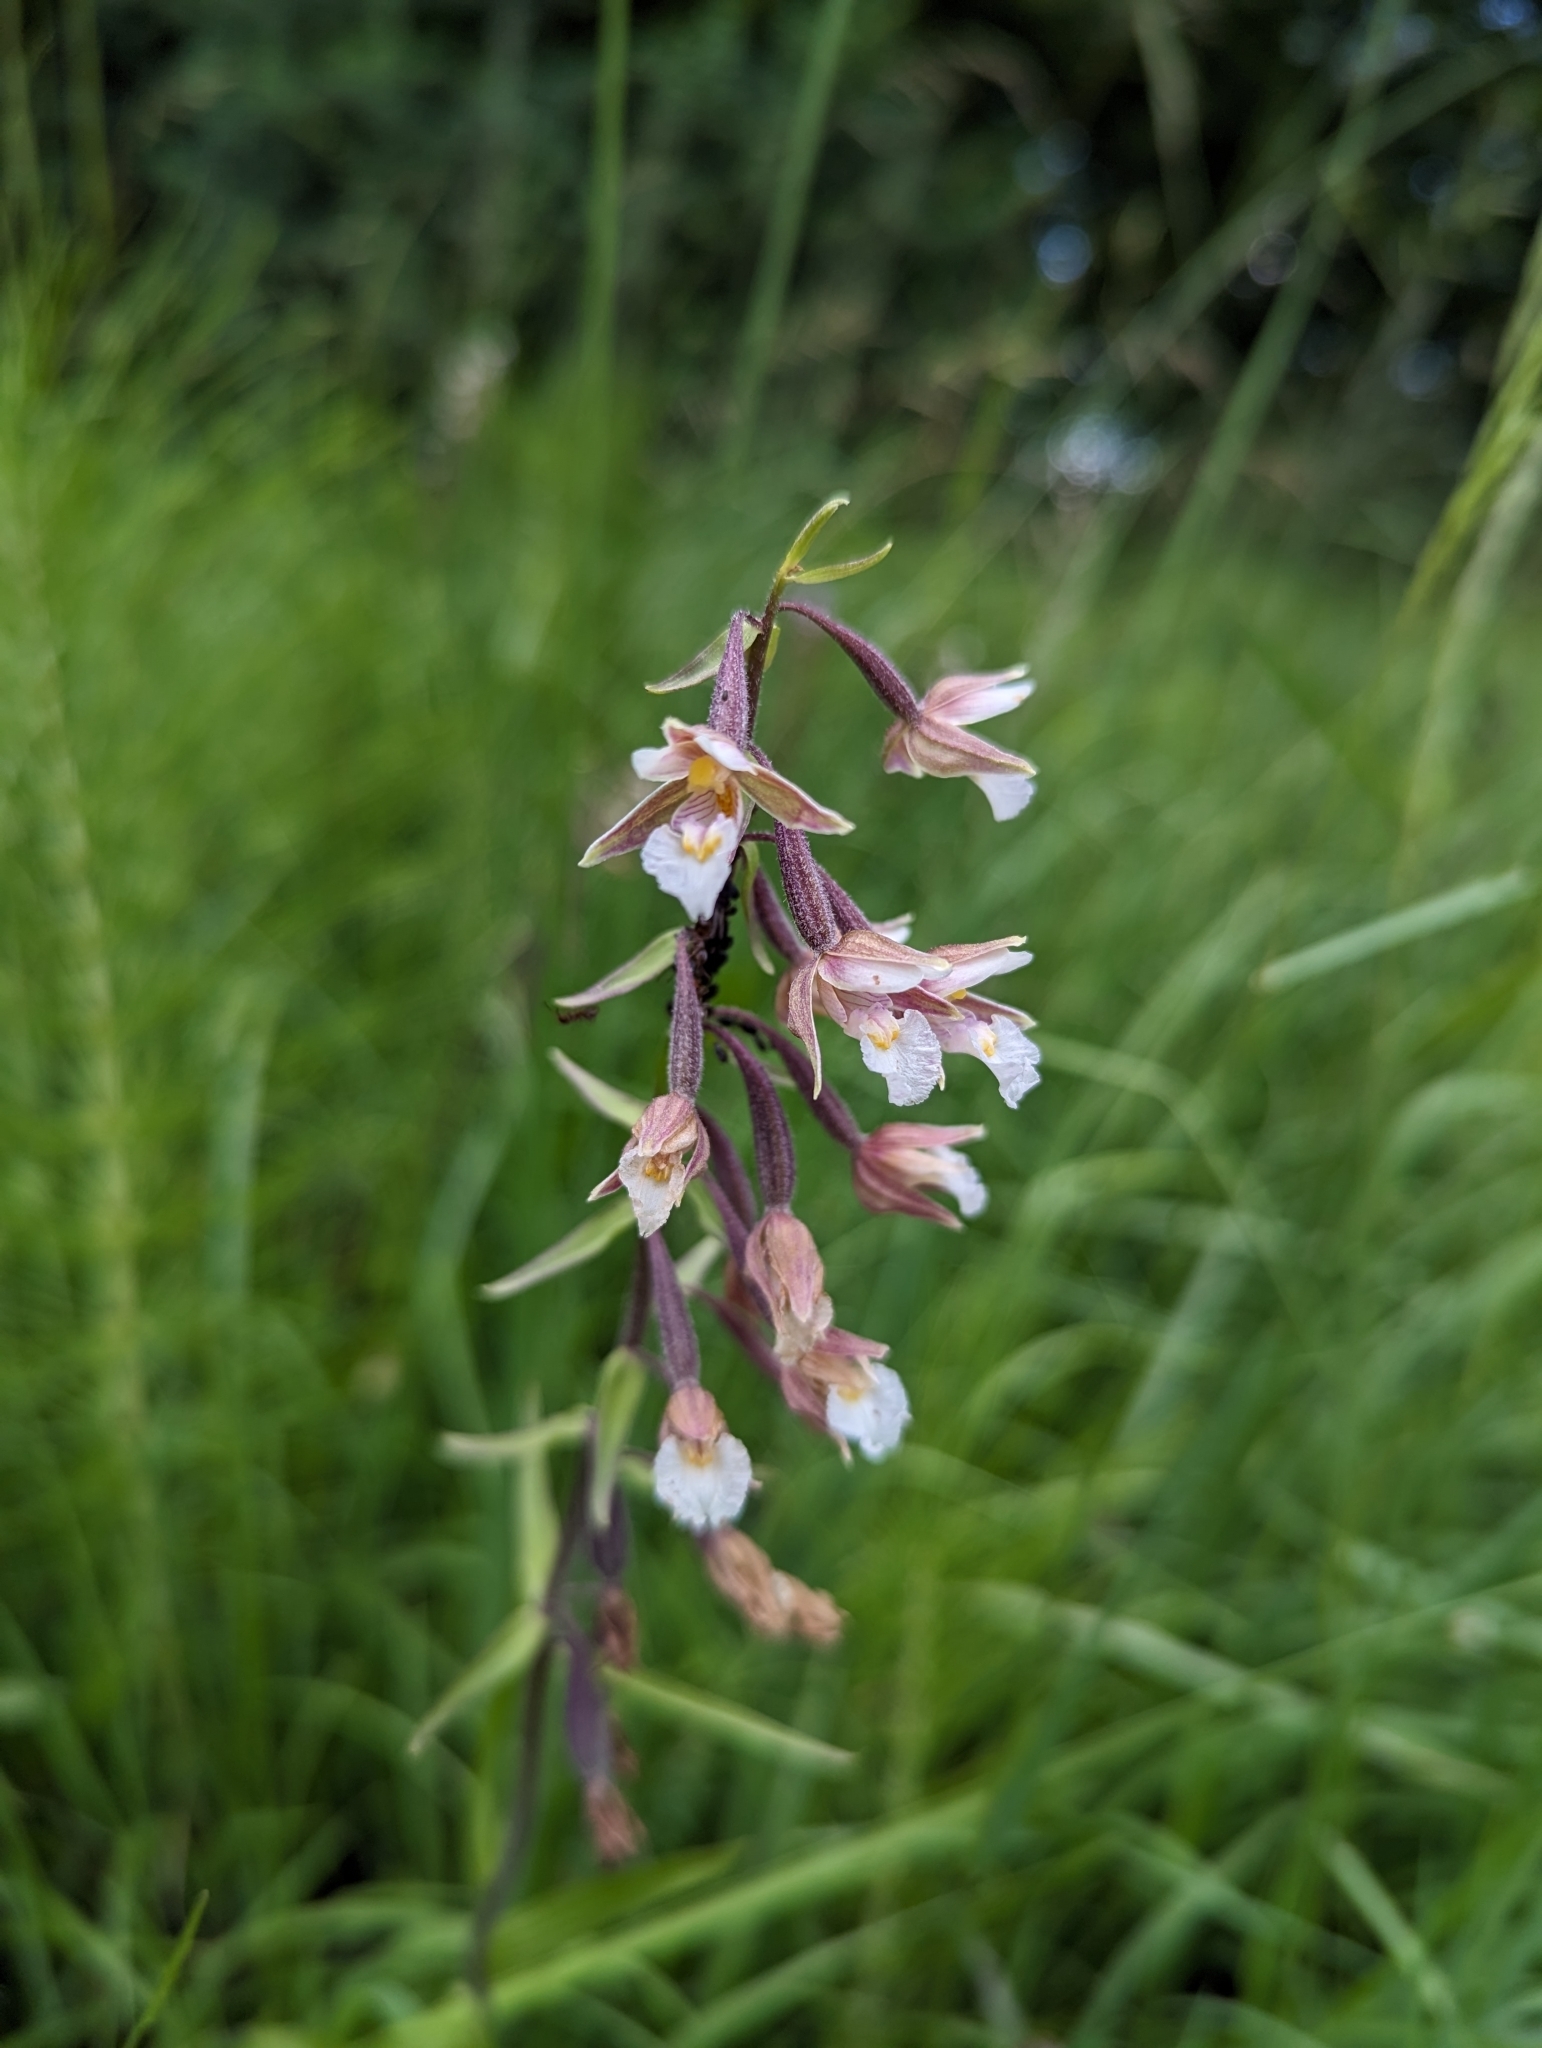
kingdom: Plantae
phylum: Tracheophyta
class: Liliopsida
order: Asparagales
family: Orchidaceae
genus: Epipactis
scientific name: Epipactis palustris
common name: Marsh helleborine
